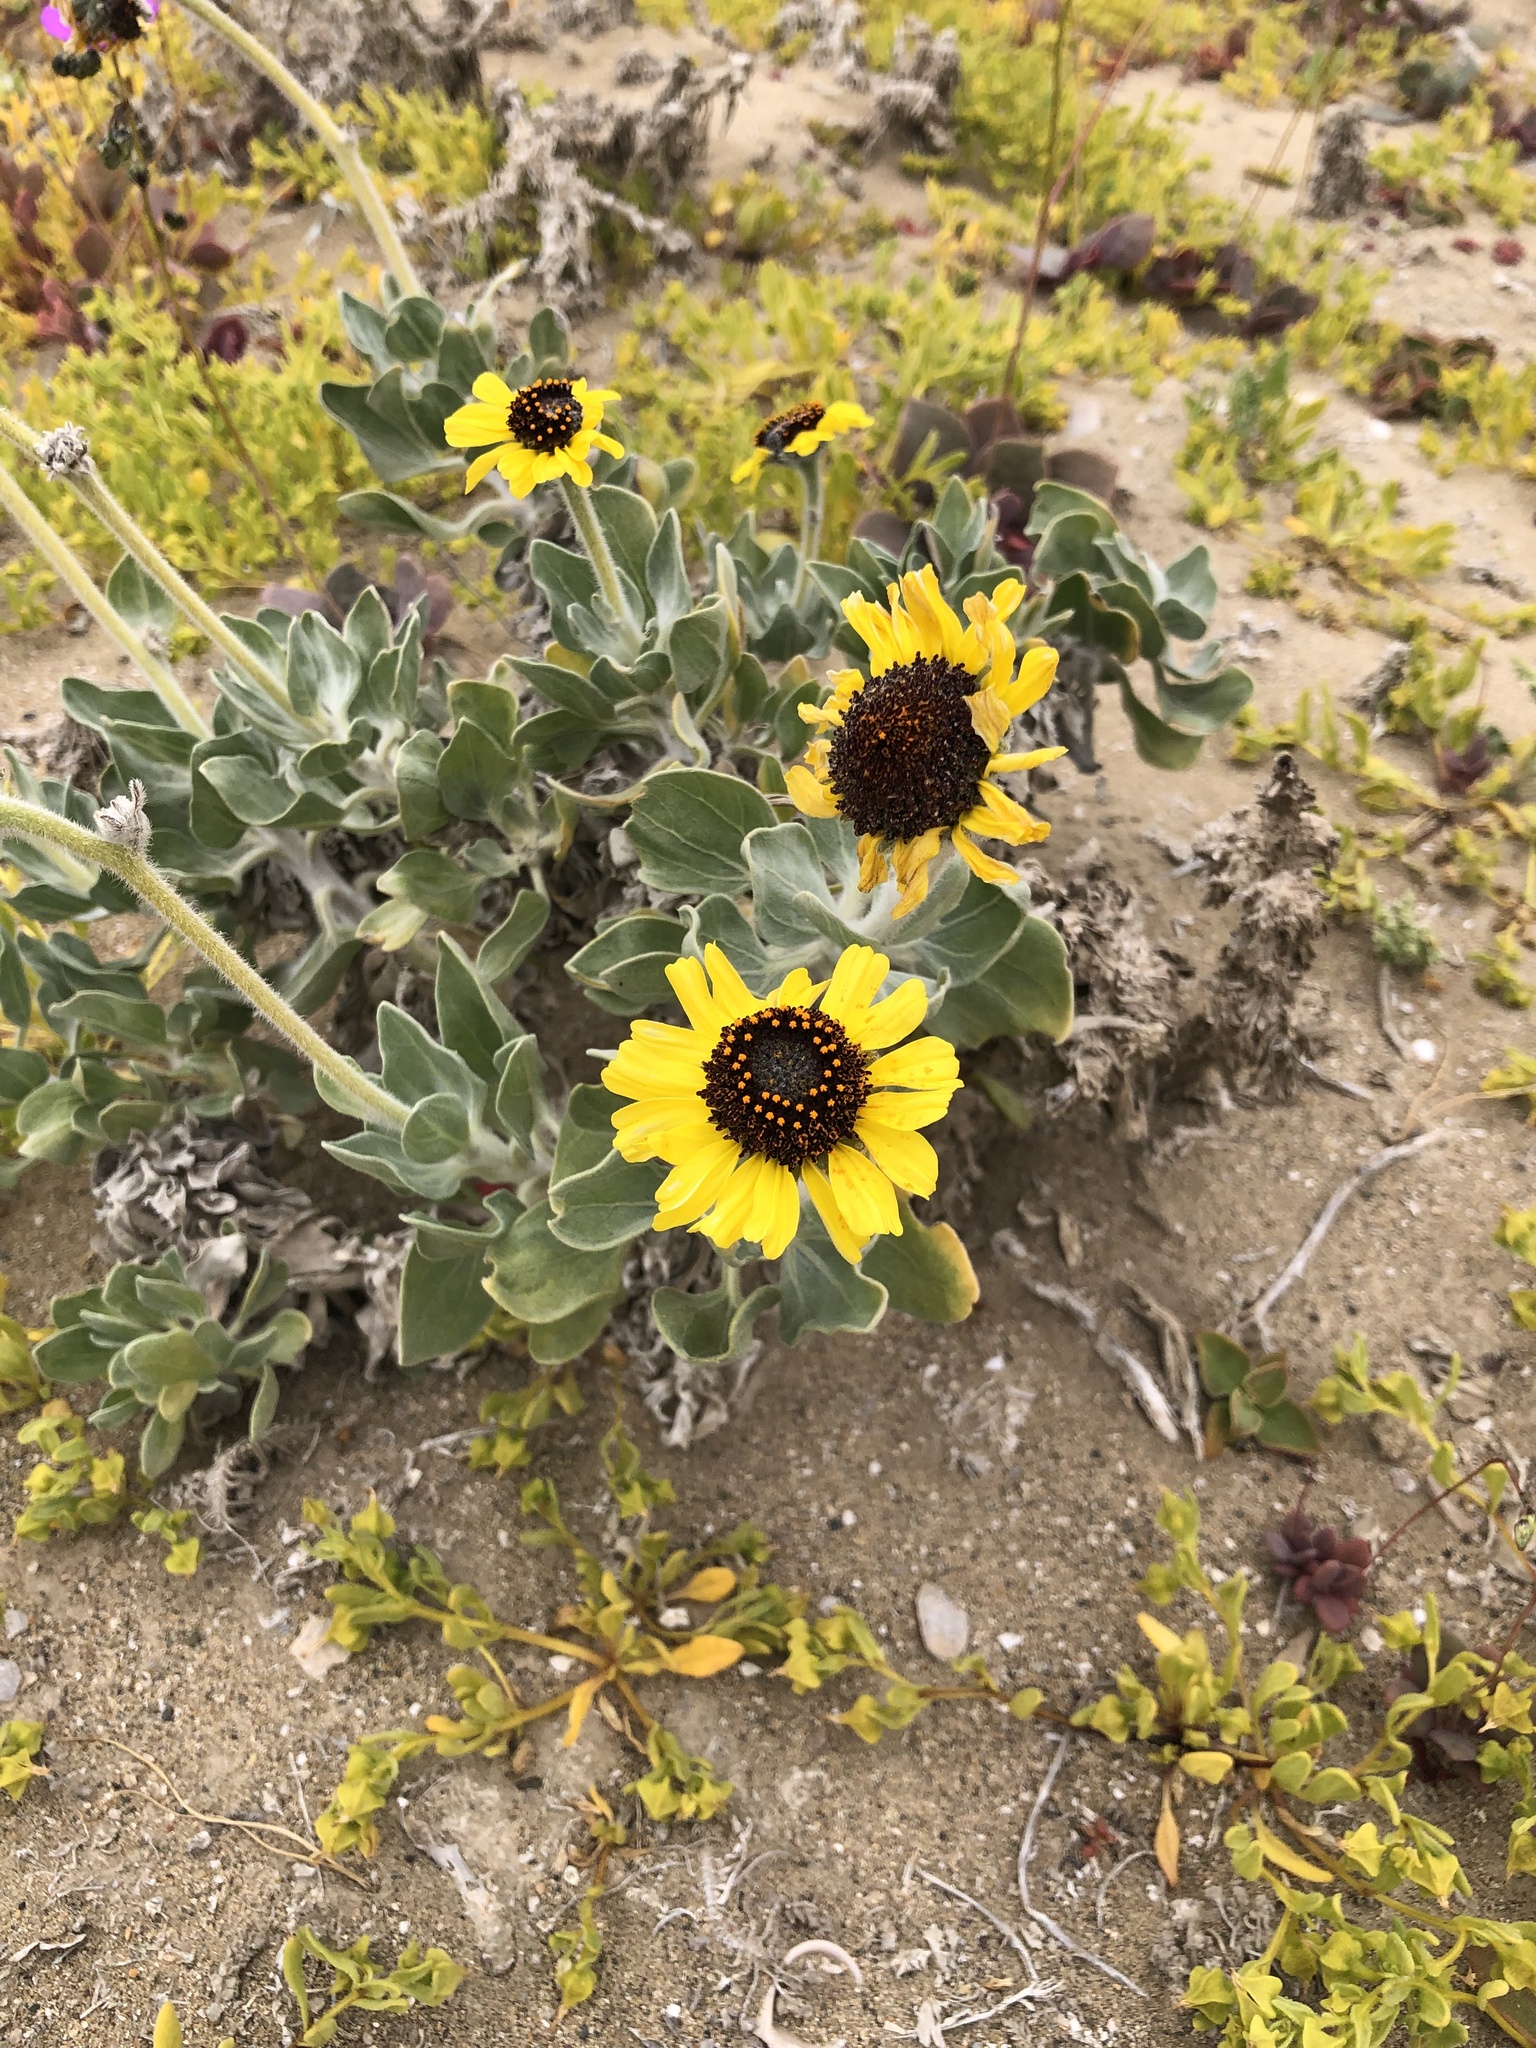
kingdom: Plantae
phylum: Tracheophyta
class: Magnoliopsida
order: Asterales
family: Asteraceae
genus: Encelia
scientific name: Encelia canescens
